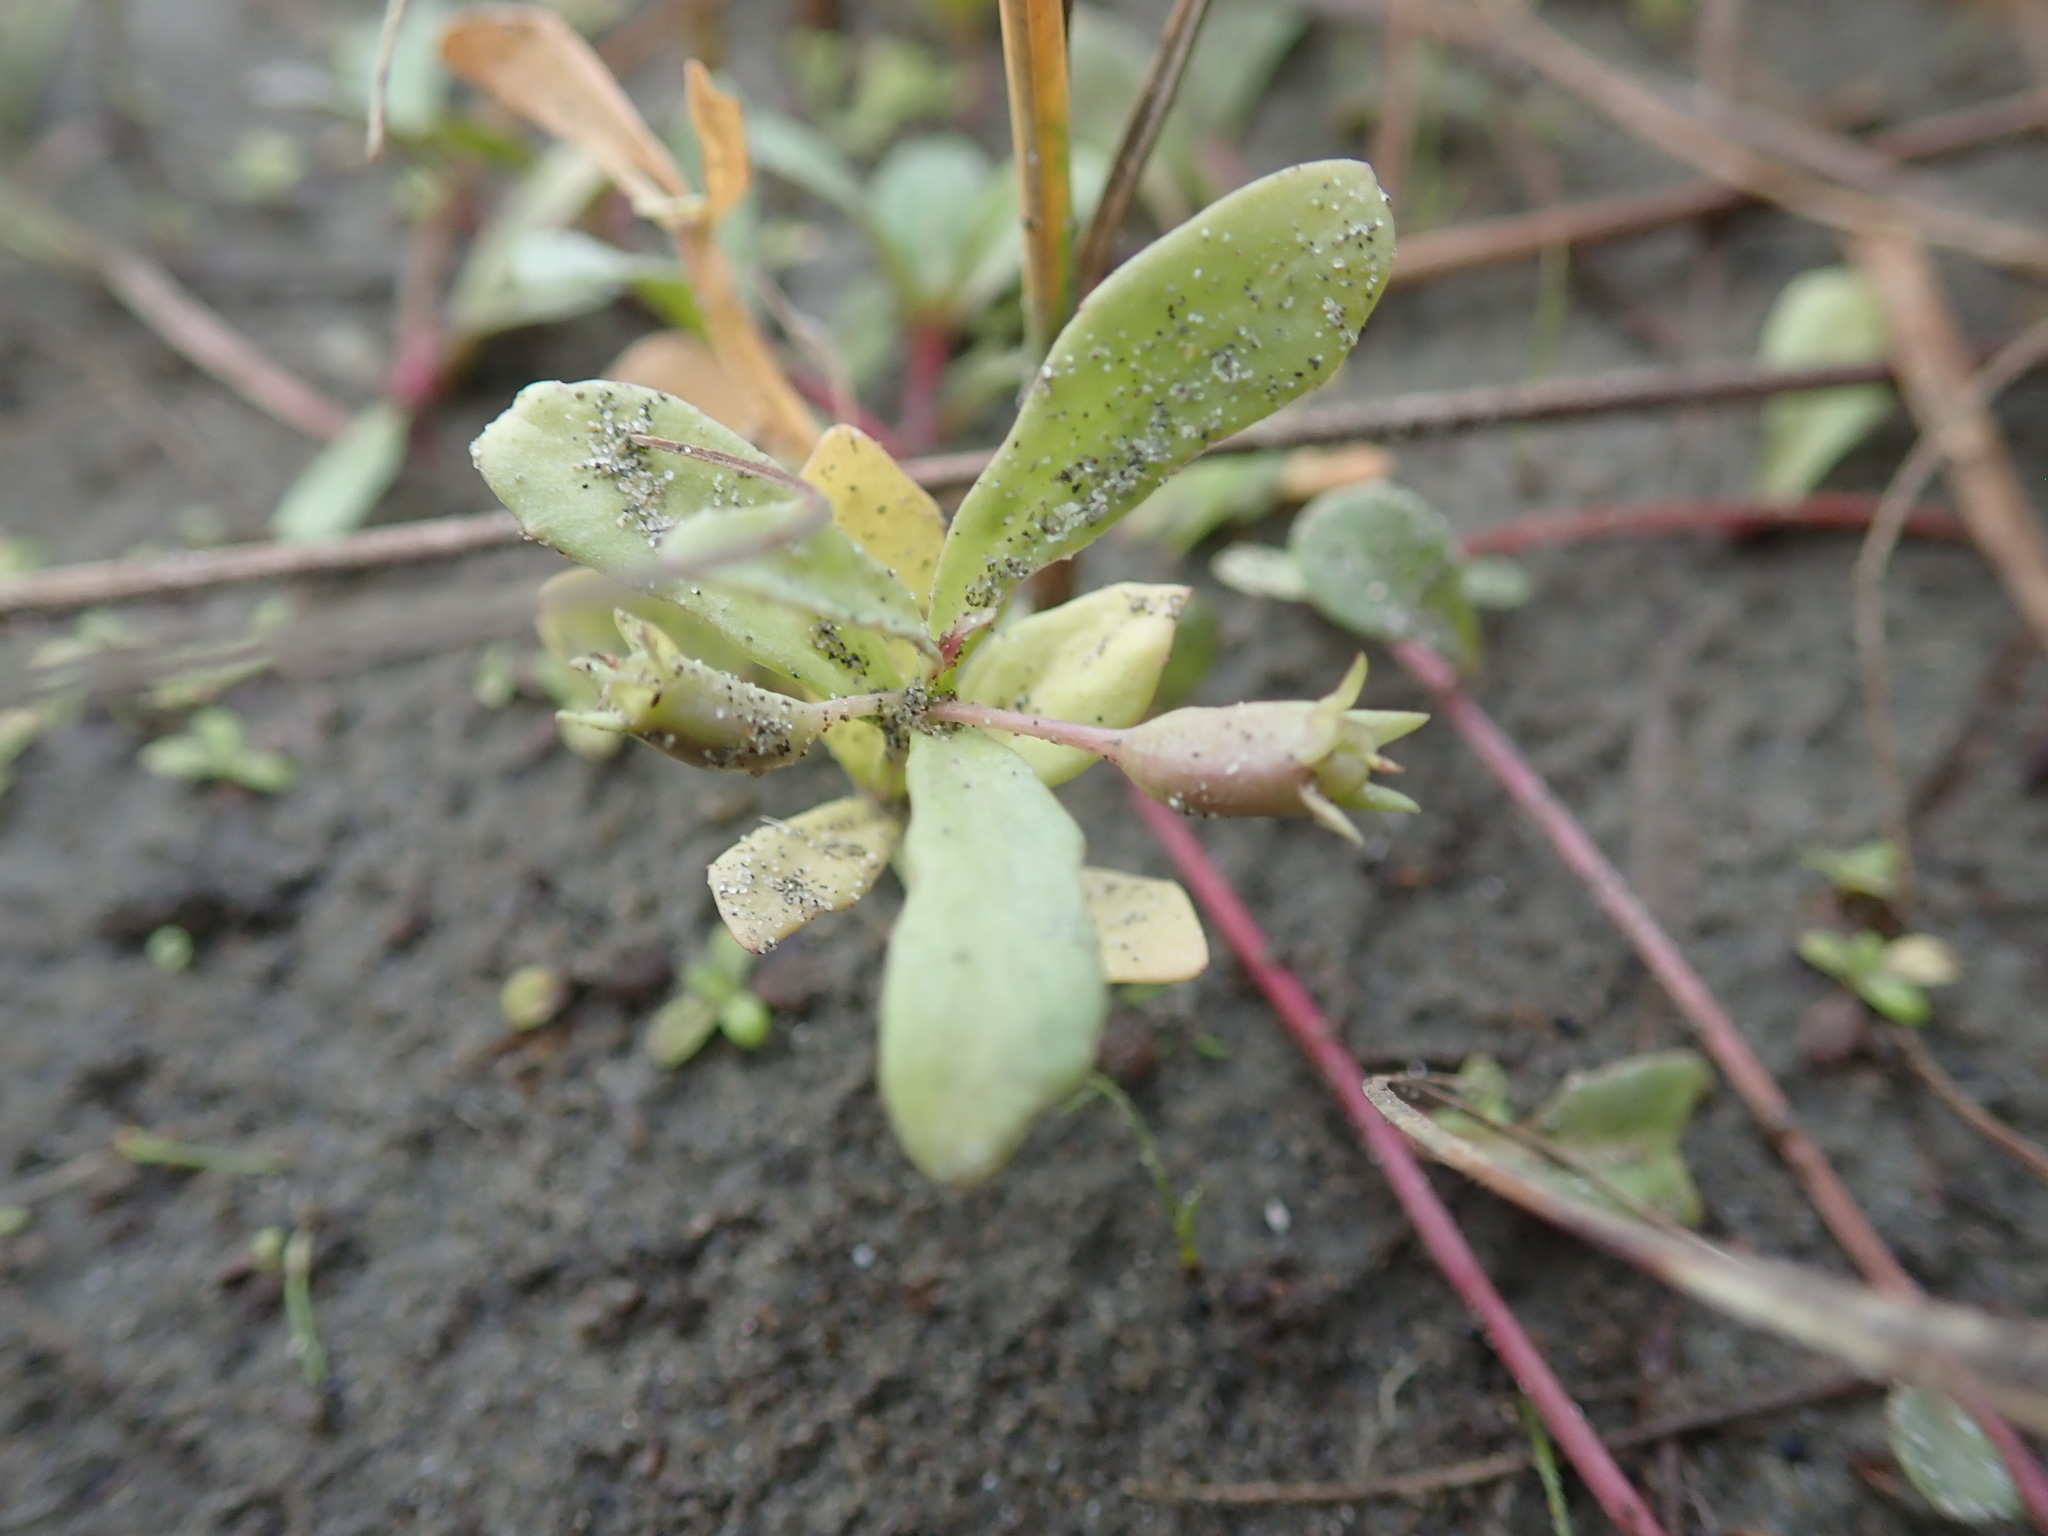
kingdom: Plantae
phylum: Tracheophyta
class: Magnoliopsida
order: Asterales
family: Campanulaceae
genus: Lobelia
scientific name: Lobelia anceps
